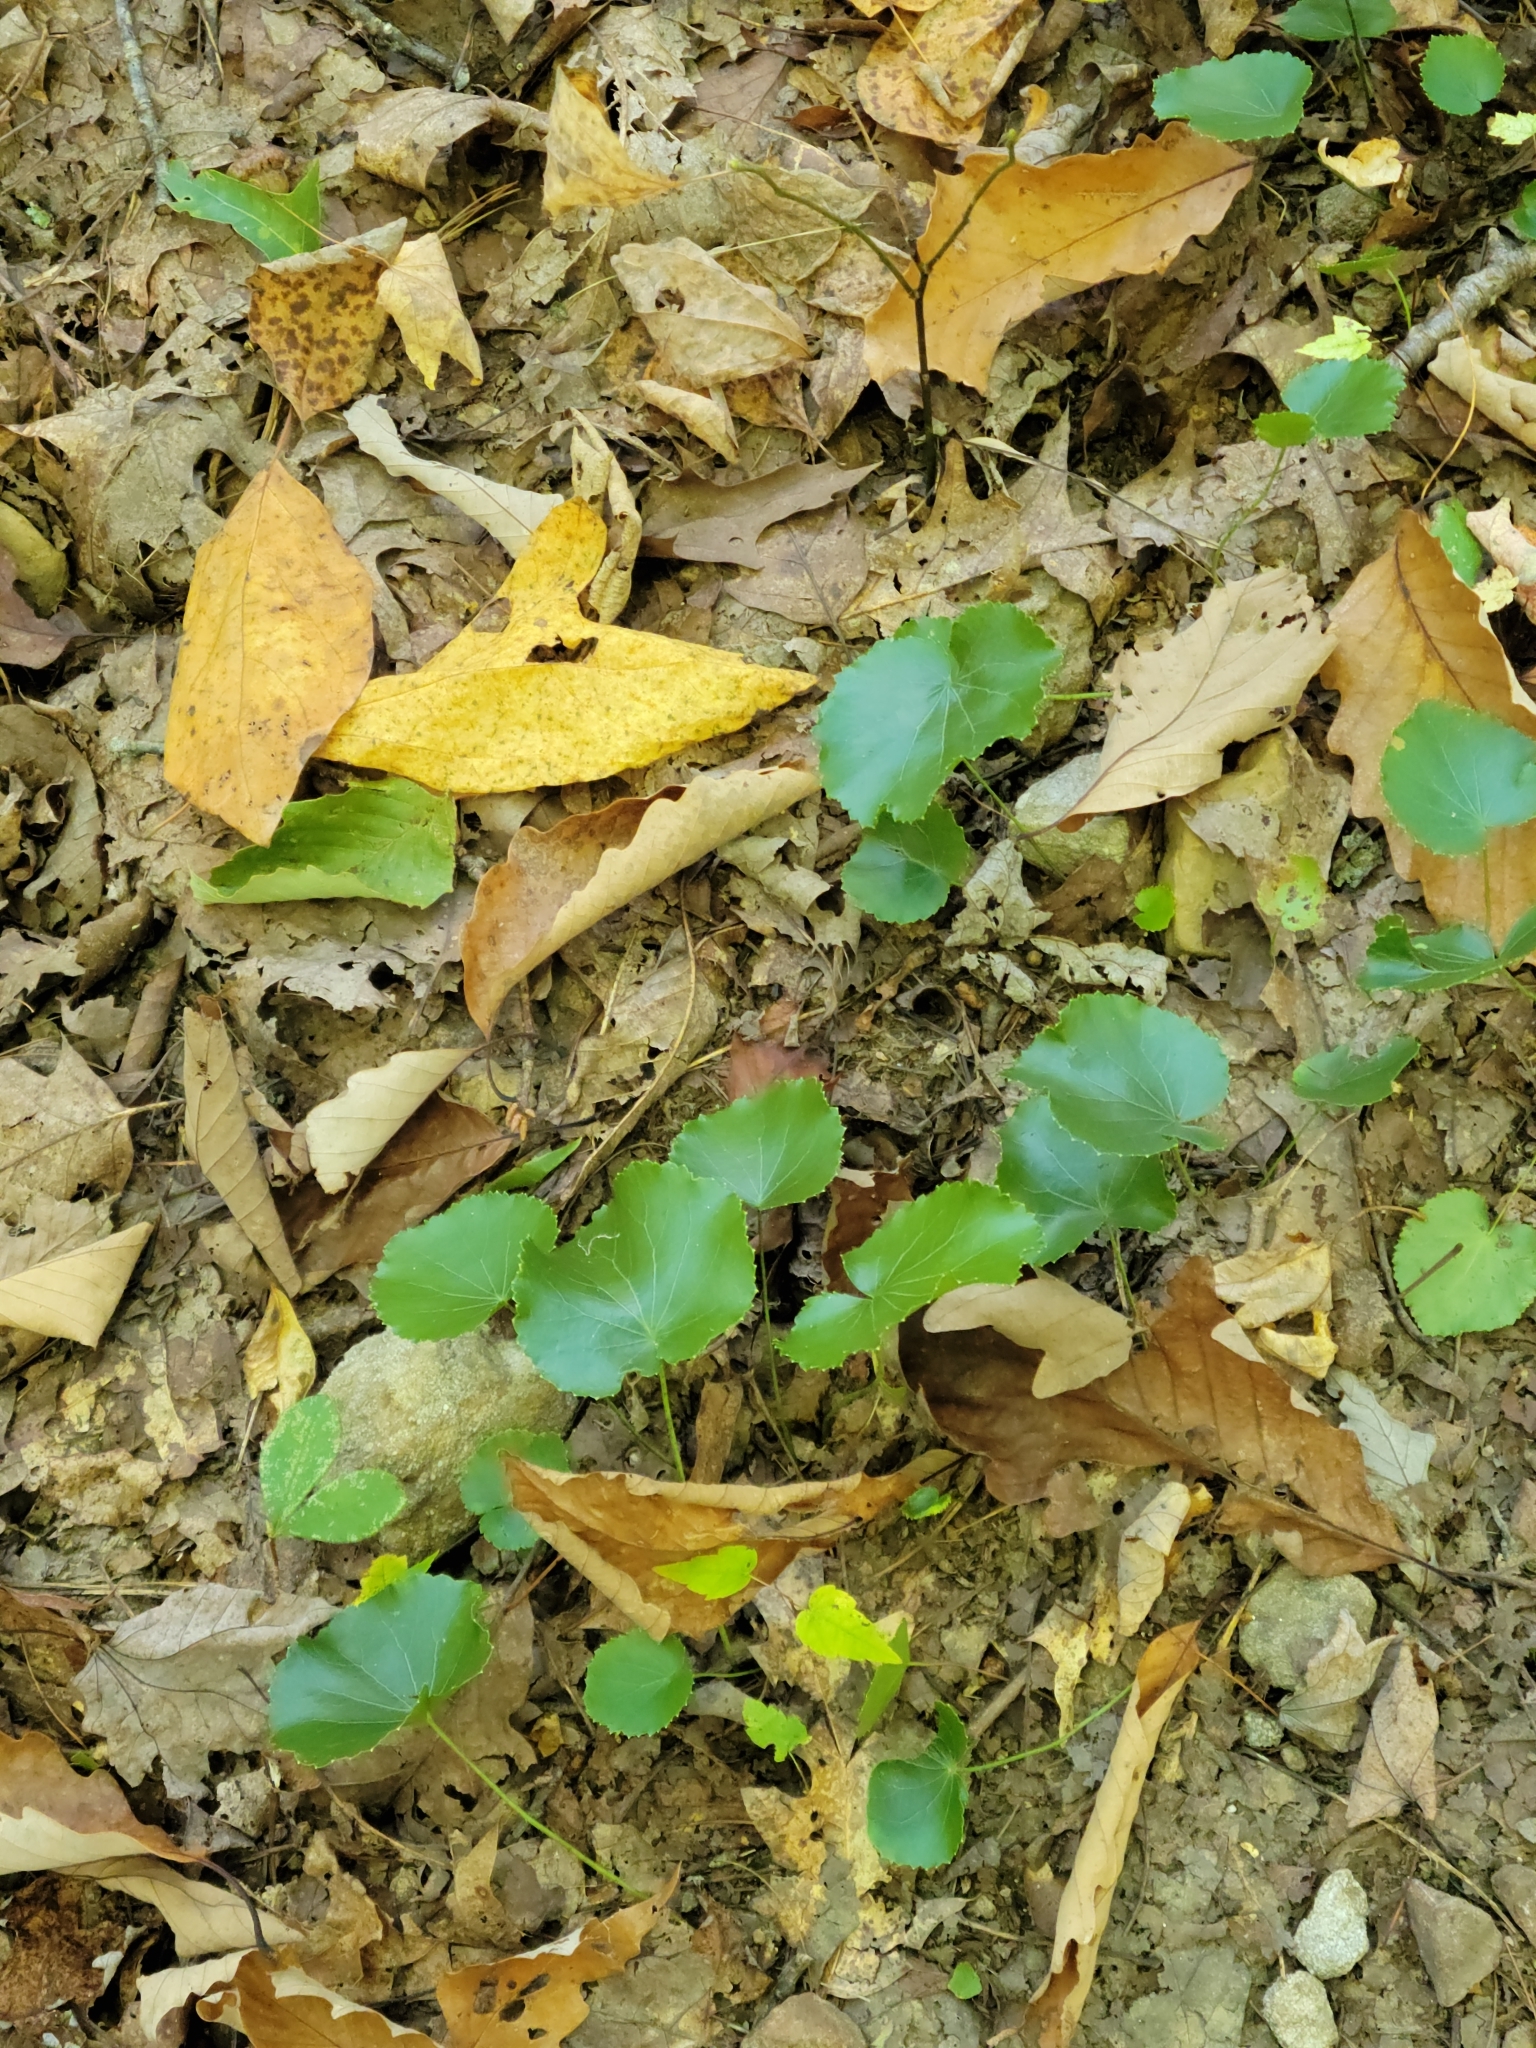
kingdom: Plantae
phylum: Tracheophyta
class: Magnoliopsida
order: Ericales
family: Diapensiaceae
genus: Galax
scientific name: Galax urceolata
